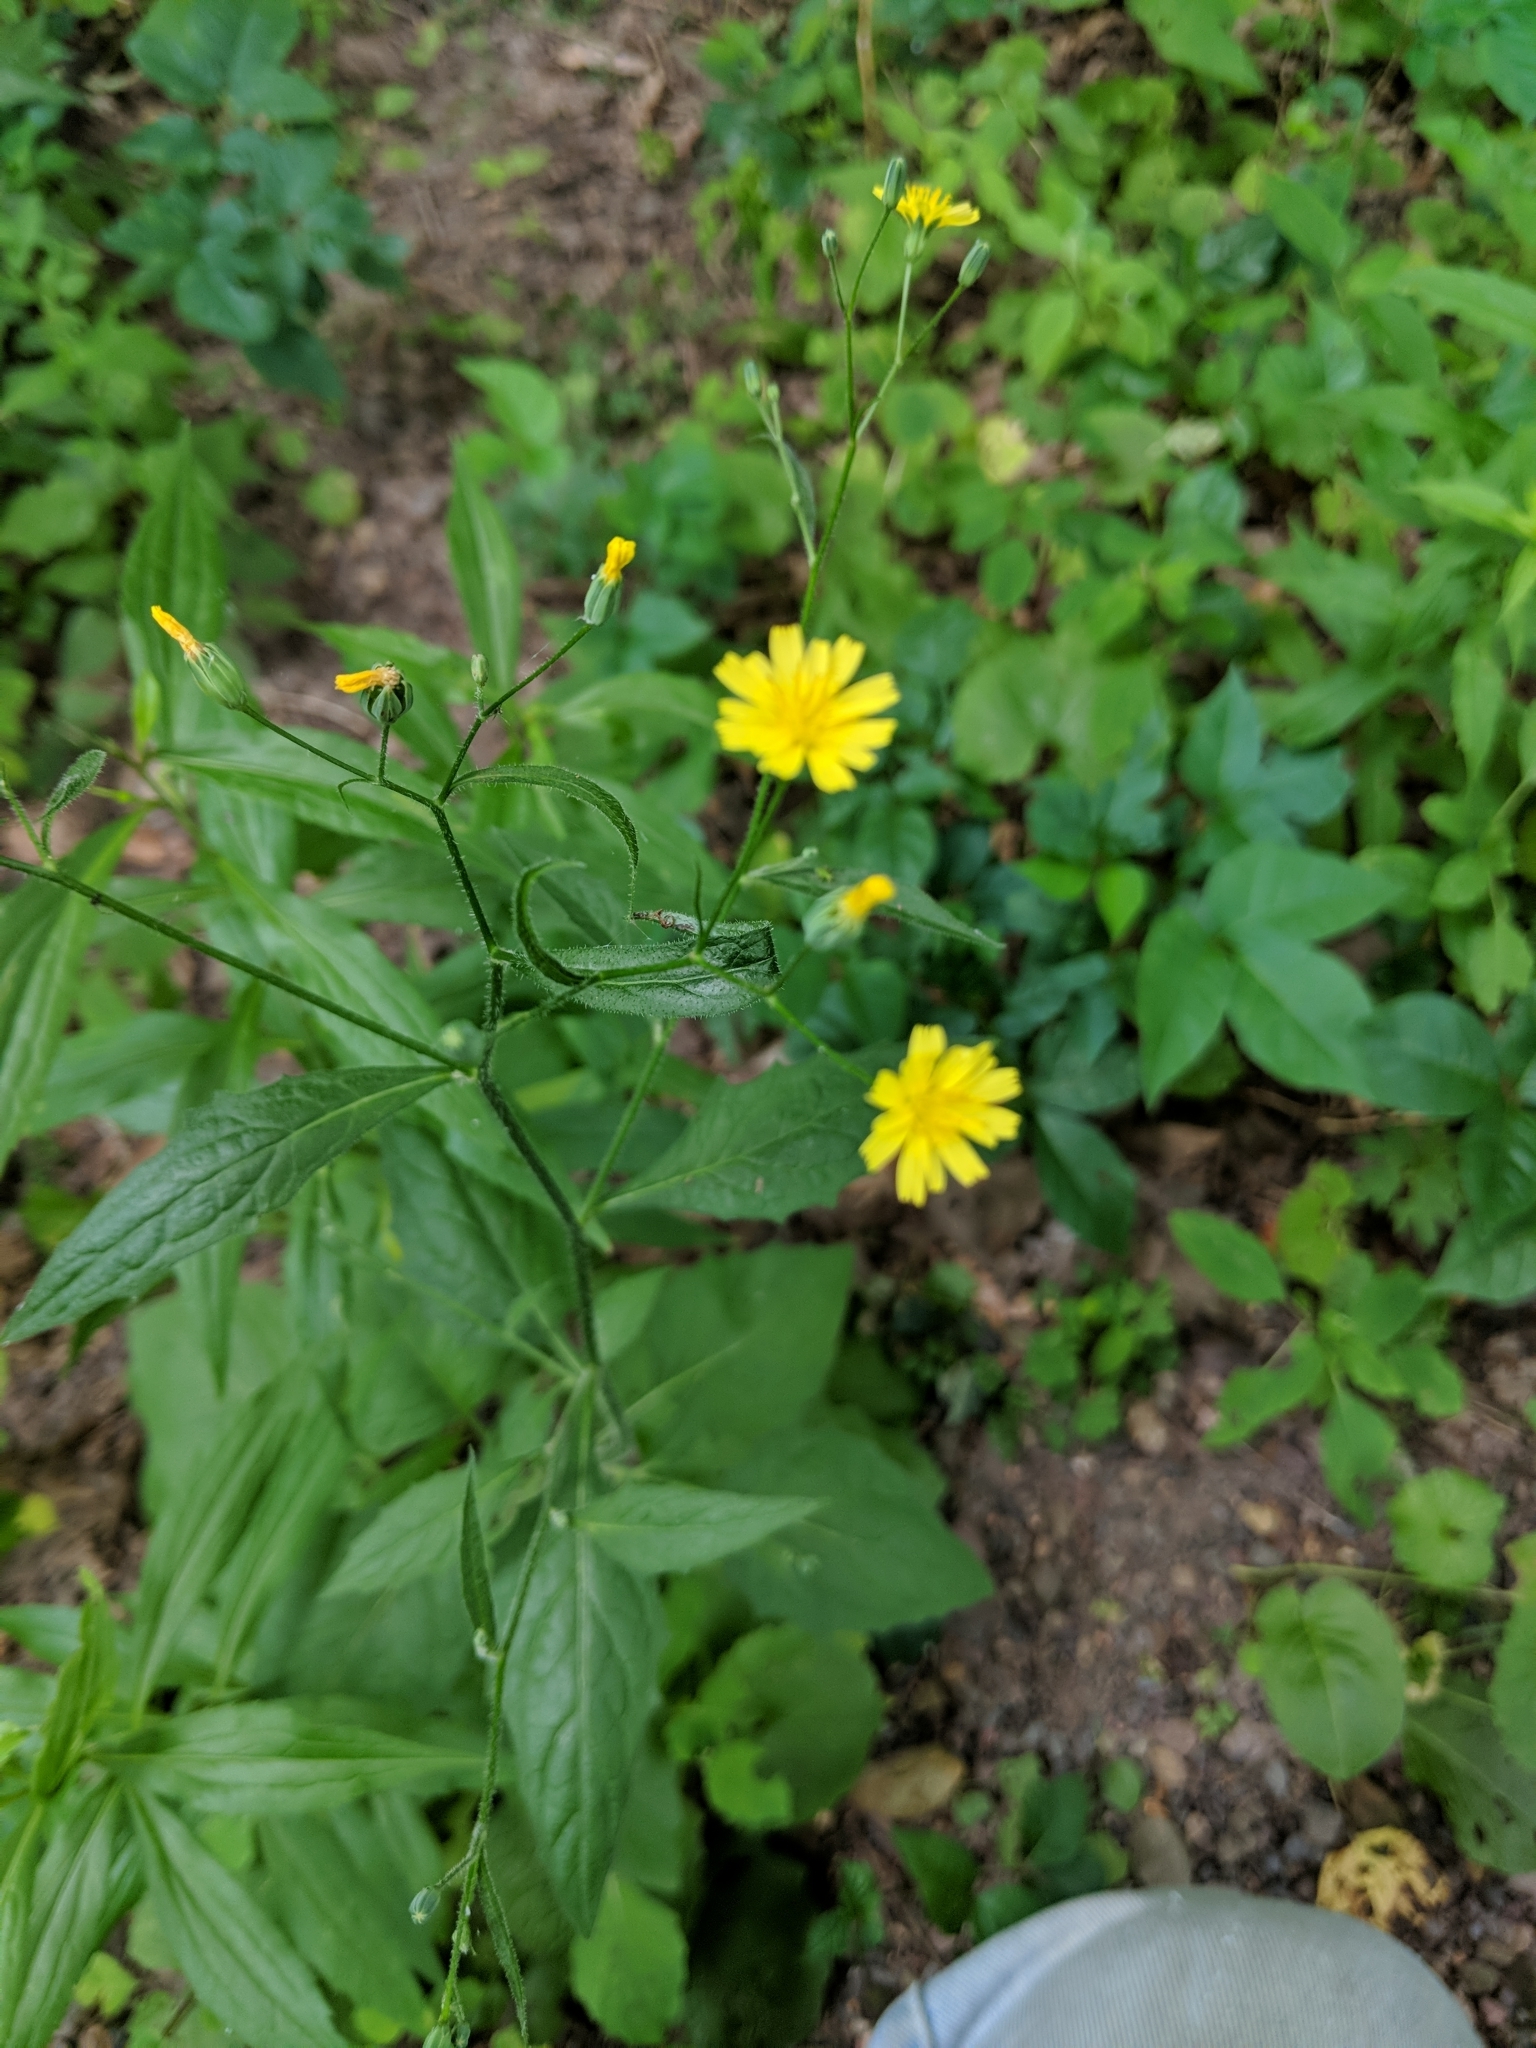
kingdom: Plantae
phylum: Tracheophyta
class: Magnoliopsida
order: Asterales
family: Asteraceae
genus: Lapsana
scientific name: Lapsana communis
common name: Nipplewort
